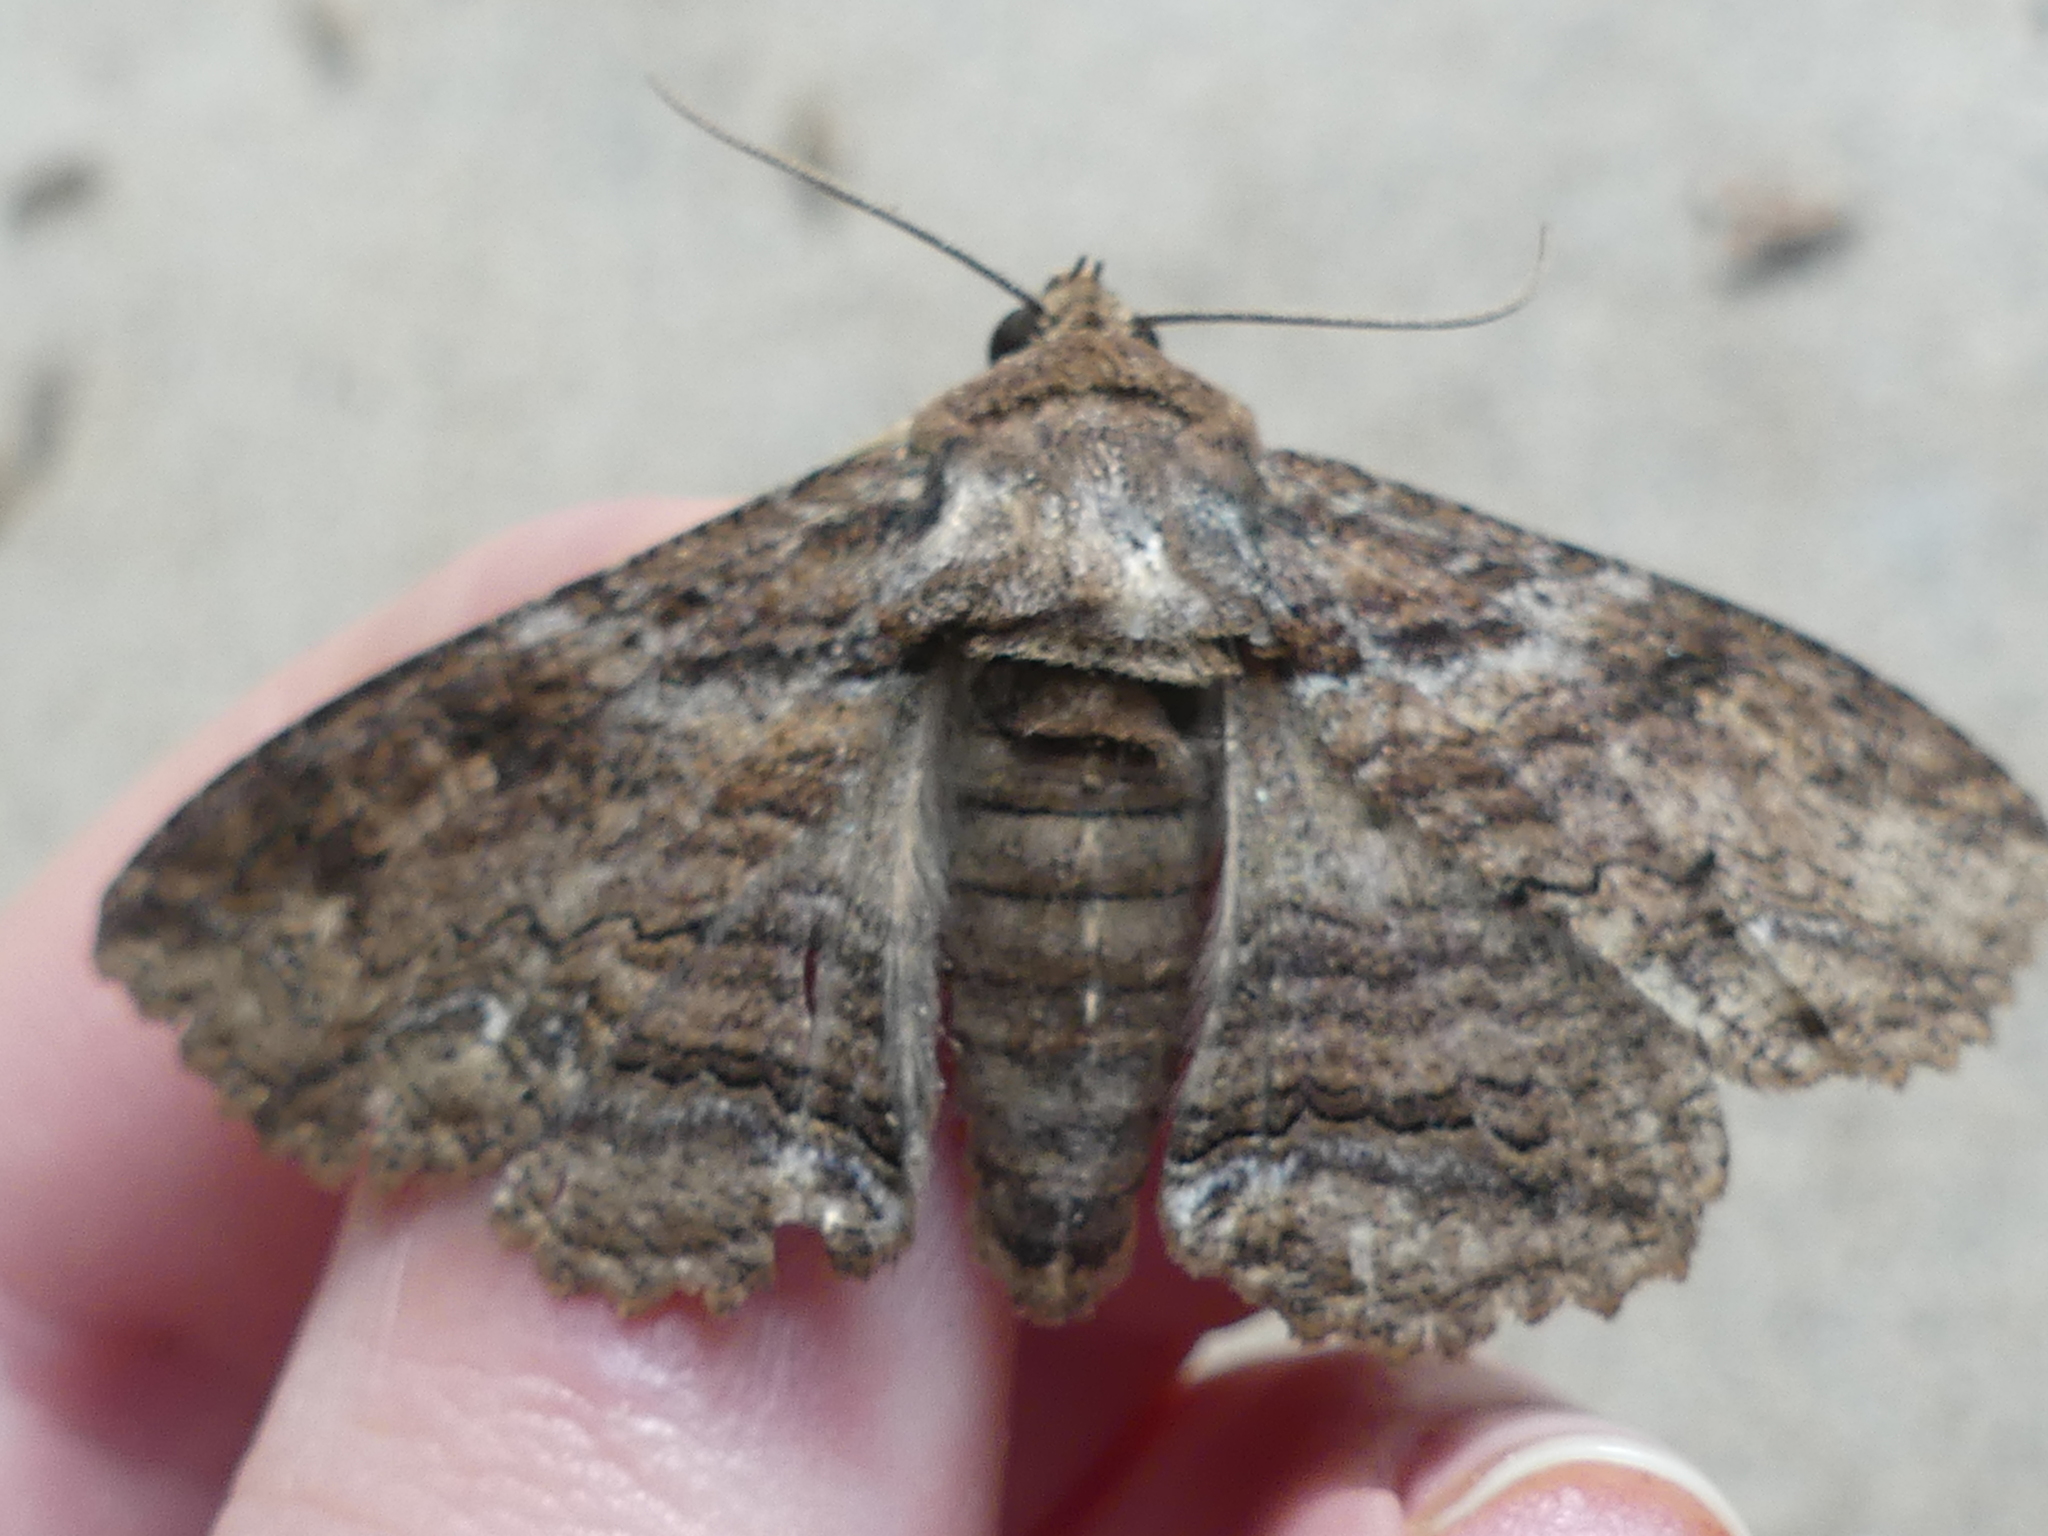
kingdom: Animalia
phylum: Arthropoda
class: Insecta
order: Lepidoptera
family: Erebidae
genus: Zale
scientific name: Zale lunata
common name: Lunate zale moth
